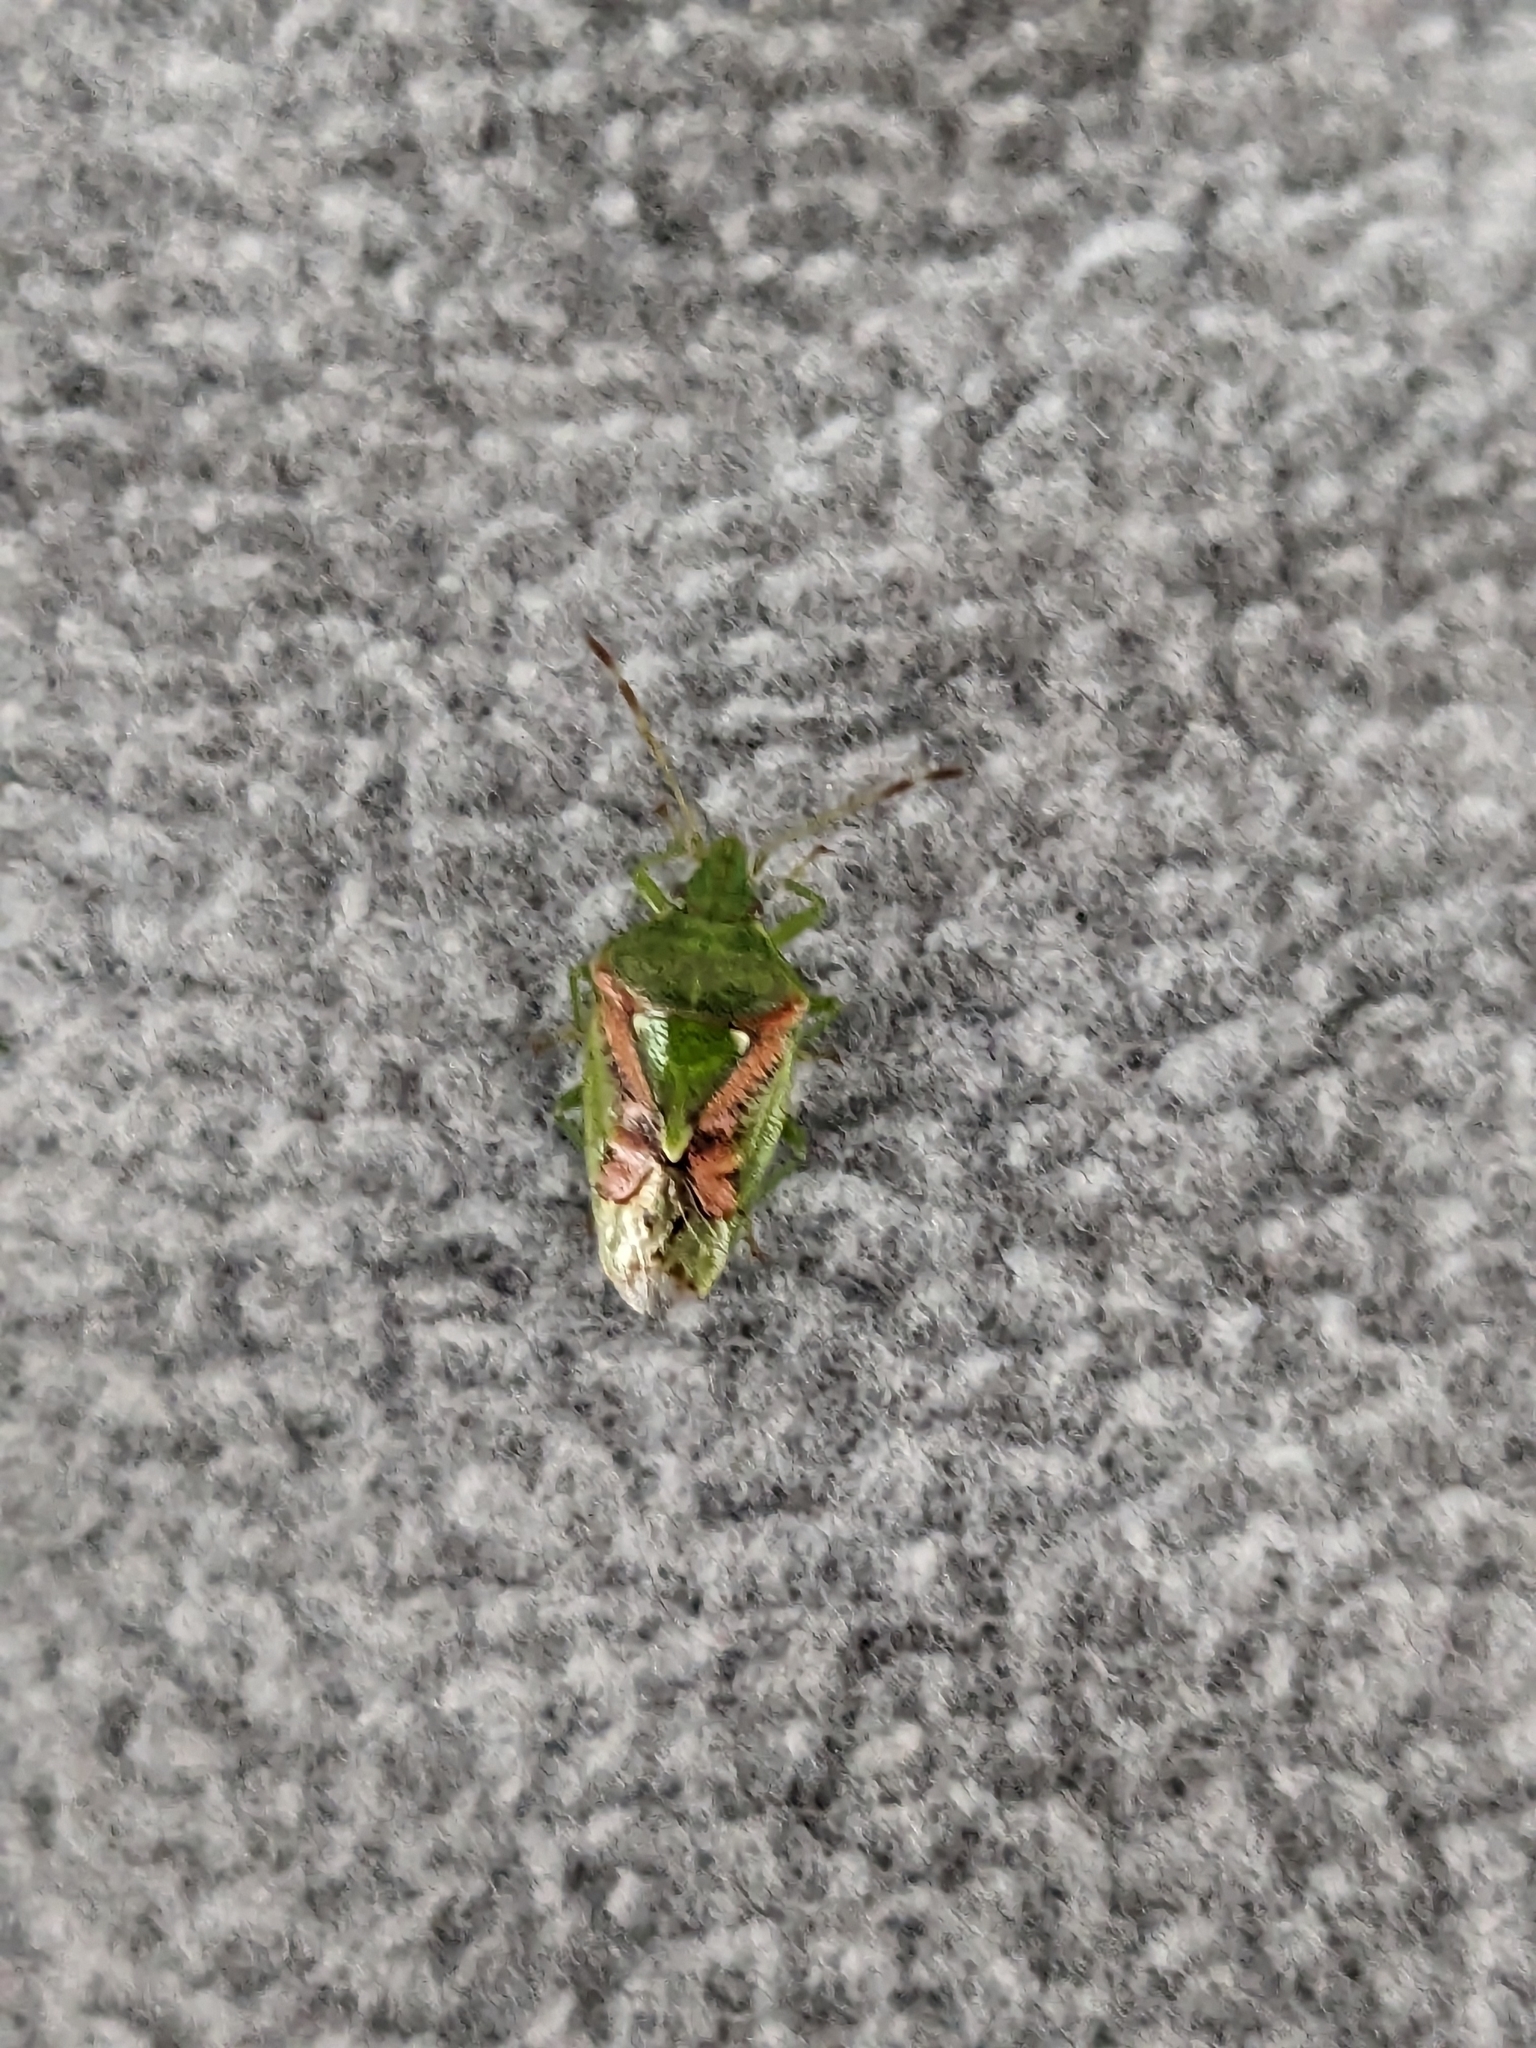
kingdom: Animalia
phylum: Arthropoda
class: Insecta
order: Hemiptera
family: Acanthosomatidae
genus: Cyphostethus
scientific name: Cyphostethus tristriatus
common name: Juniper shieldbug
